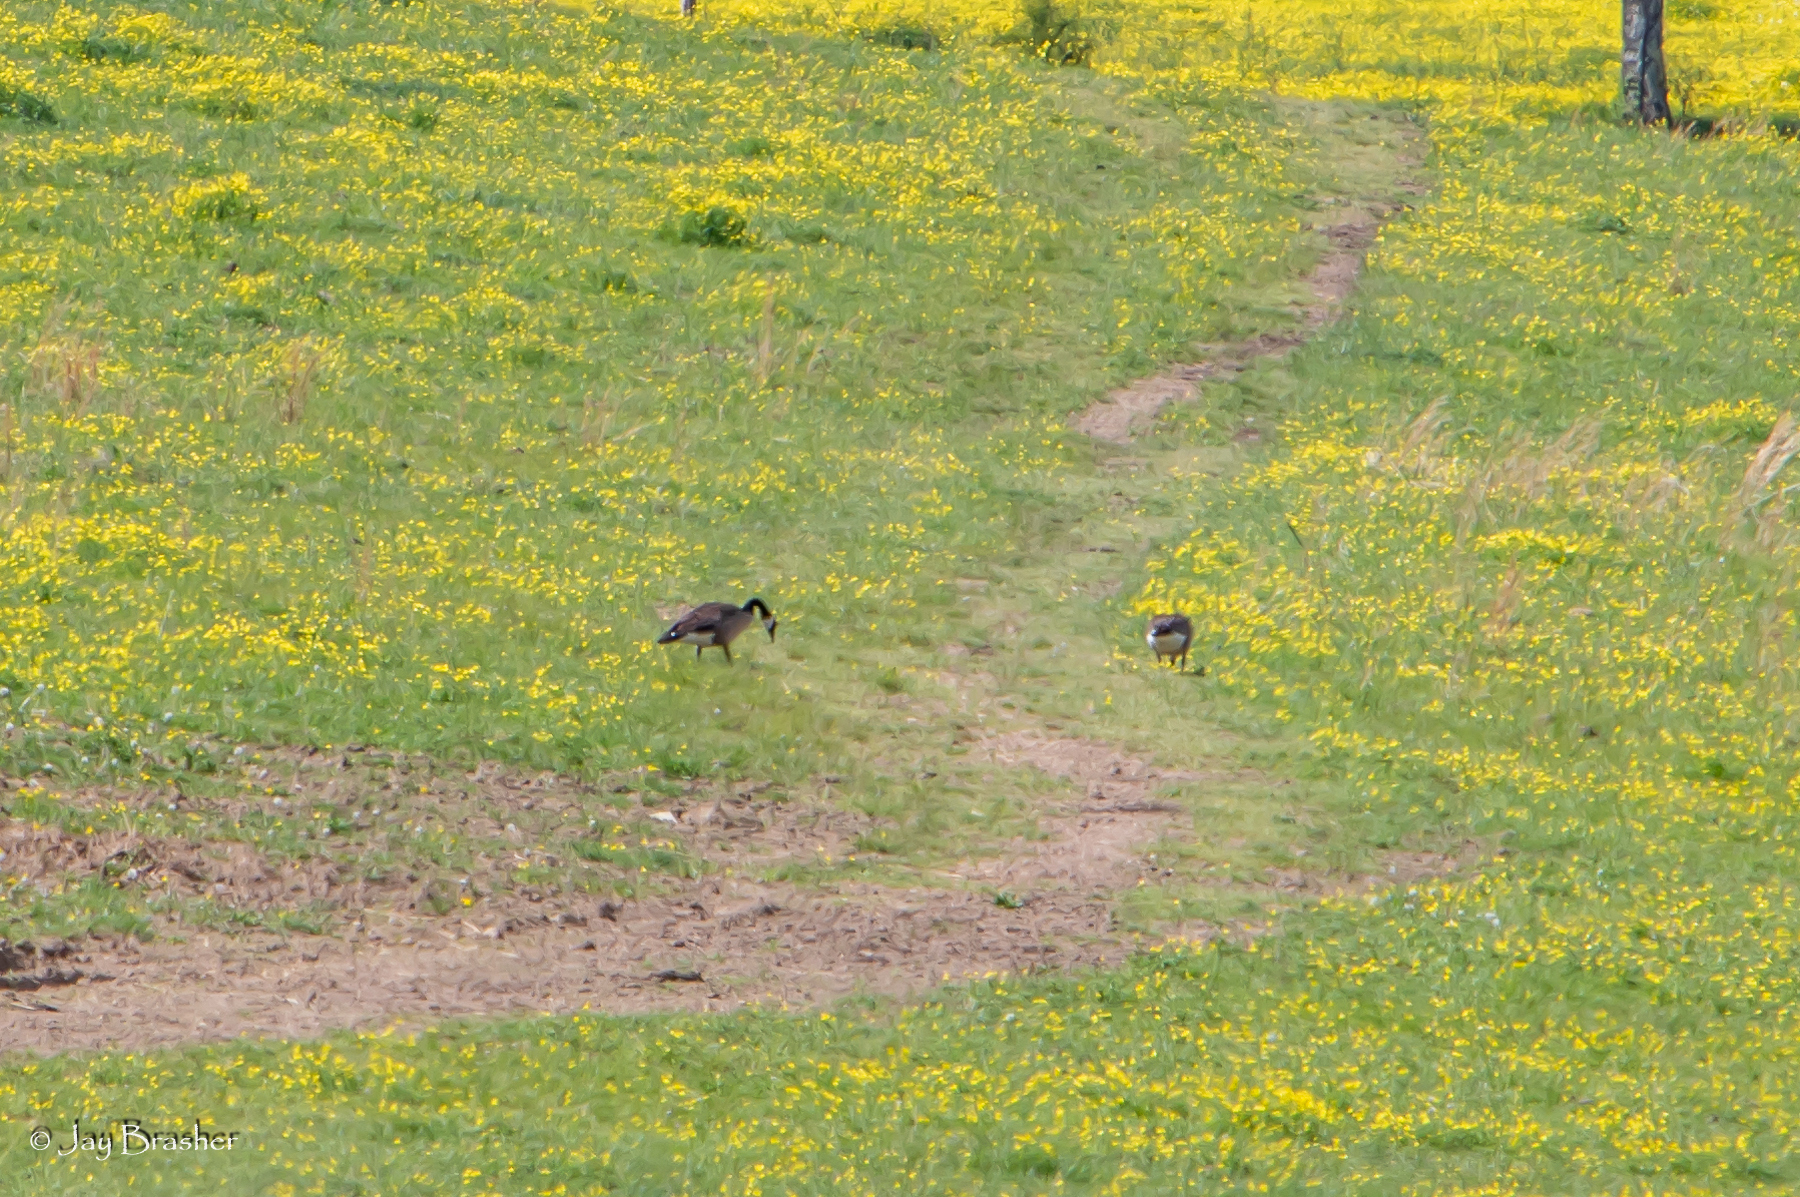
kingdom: Animalia
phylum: Chordata
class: Aves
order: Anseriformes
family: Anatidae
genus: Branta
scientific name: Branta canadensis
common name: Canada goose
